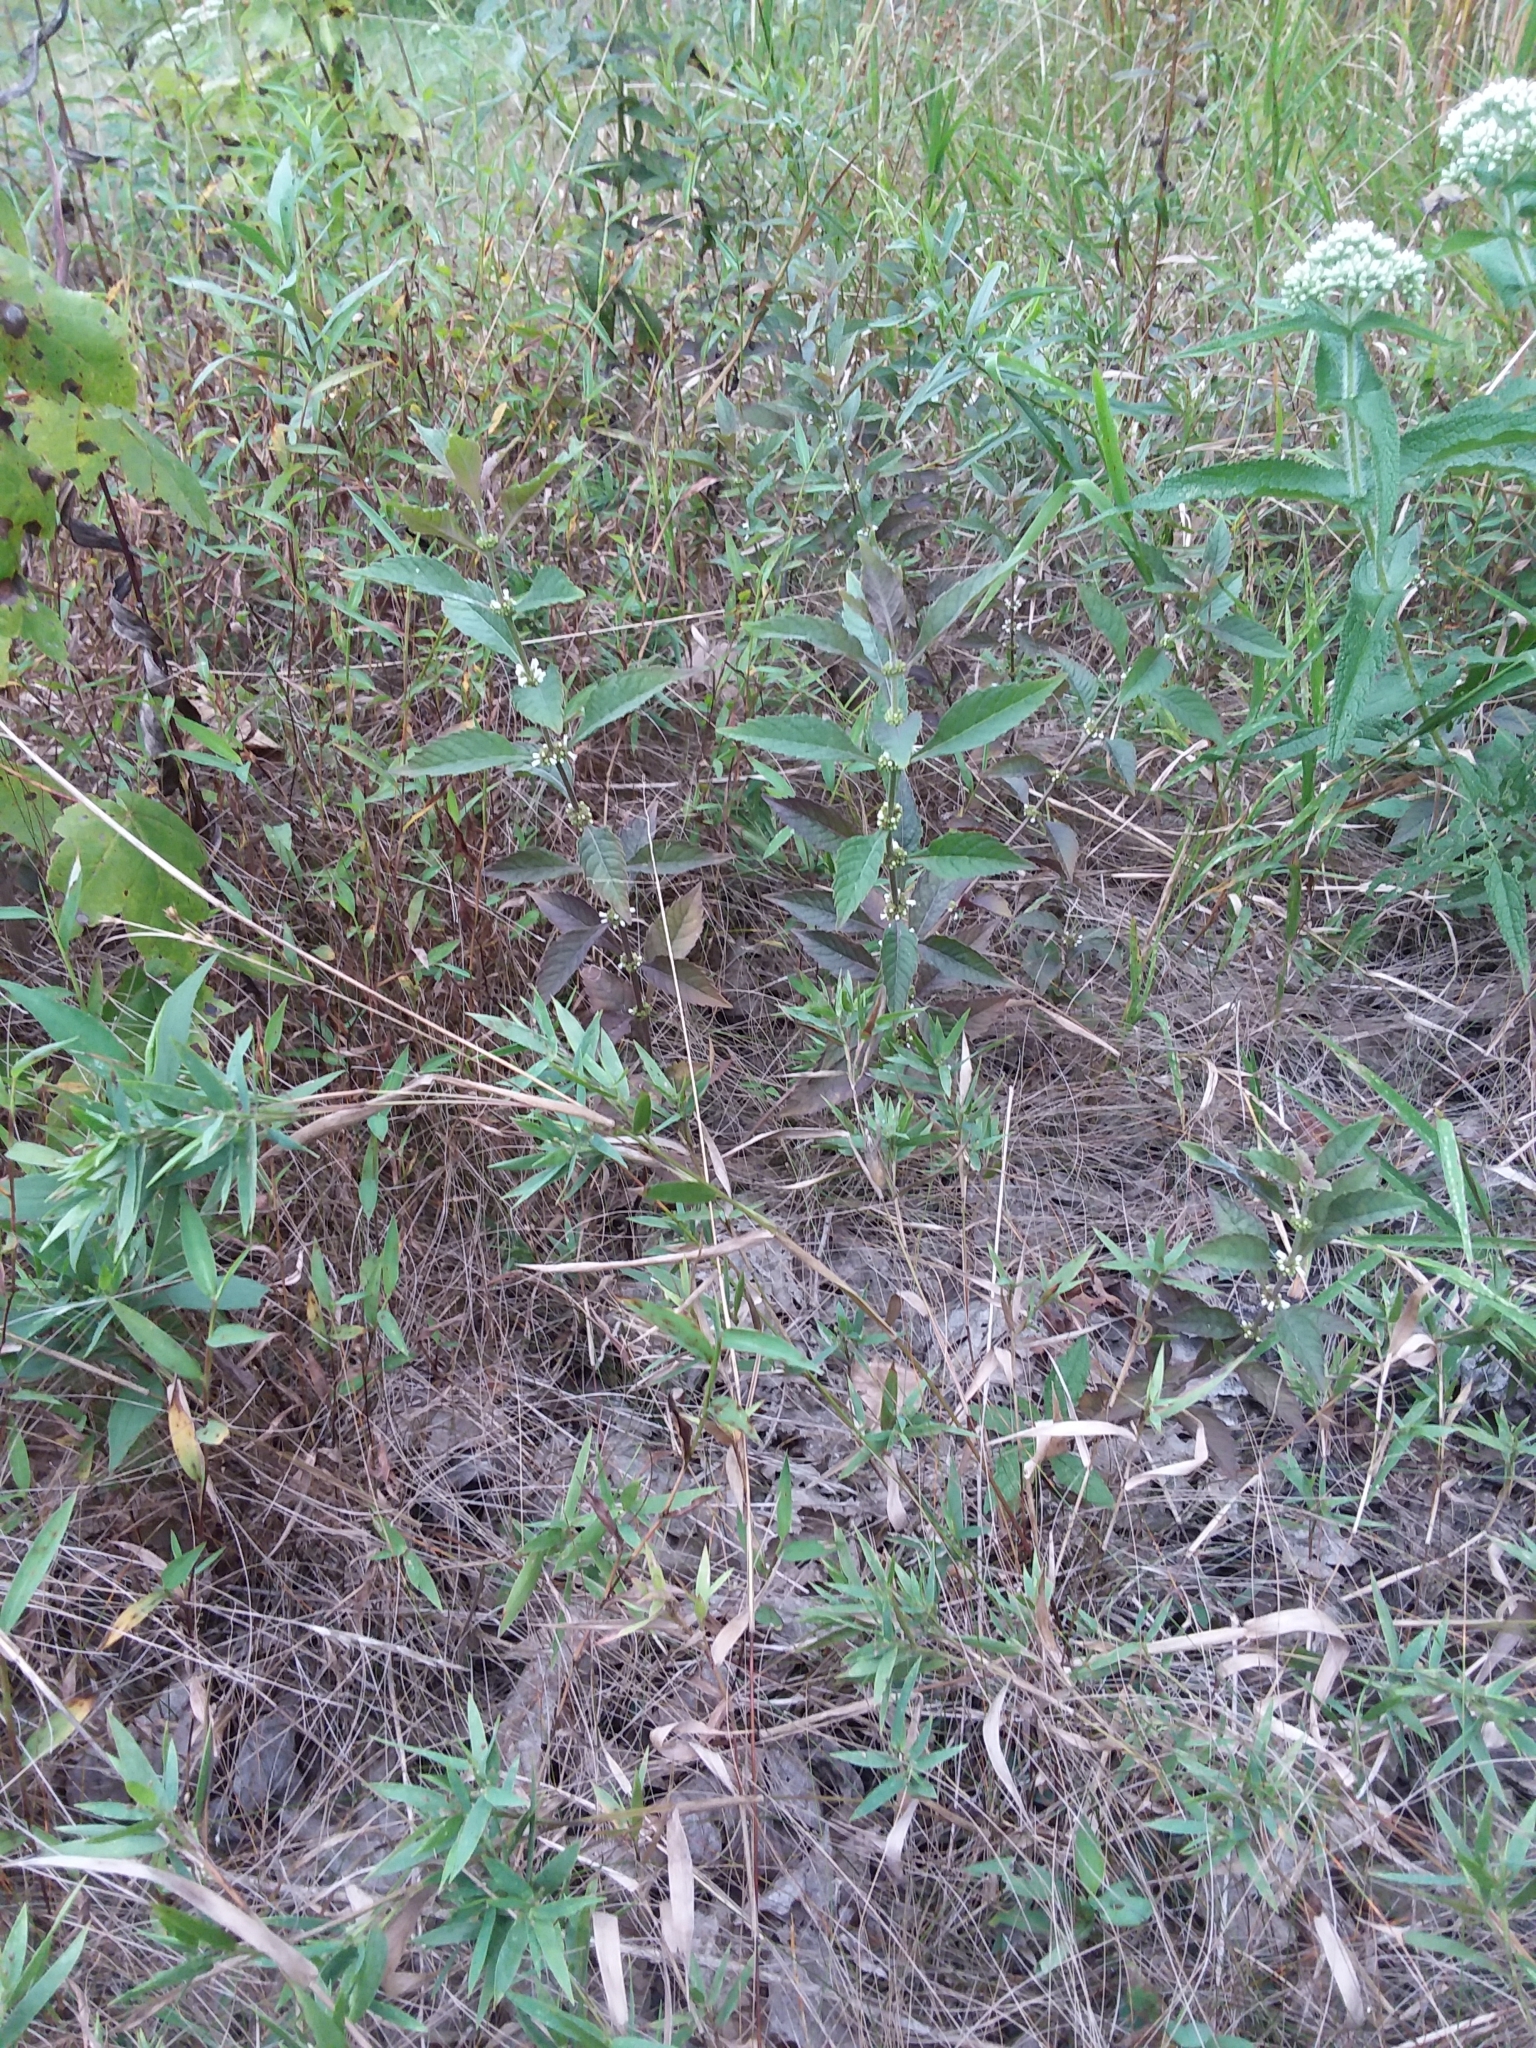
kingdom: Plantae
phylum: Tracheophyta
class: Magnoliopsida
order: Lamiales
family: Lamiaceae
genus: Lycopus
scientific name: Lycopus uniflorus
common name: Northern bugleweed
